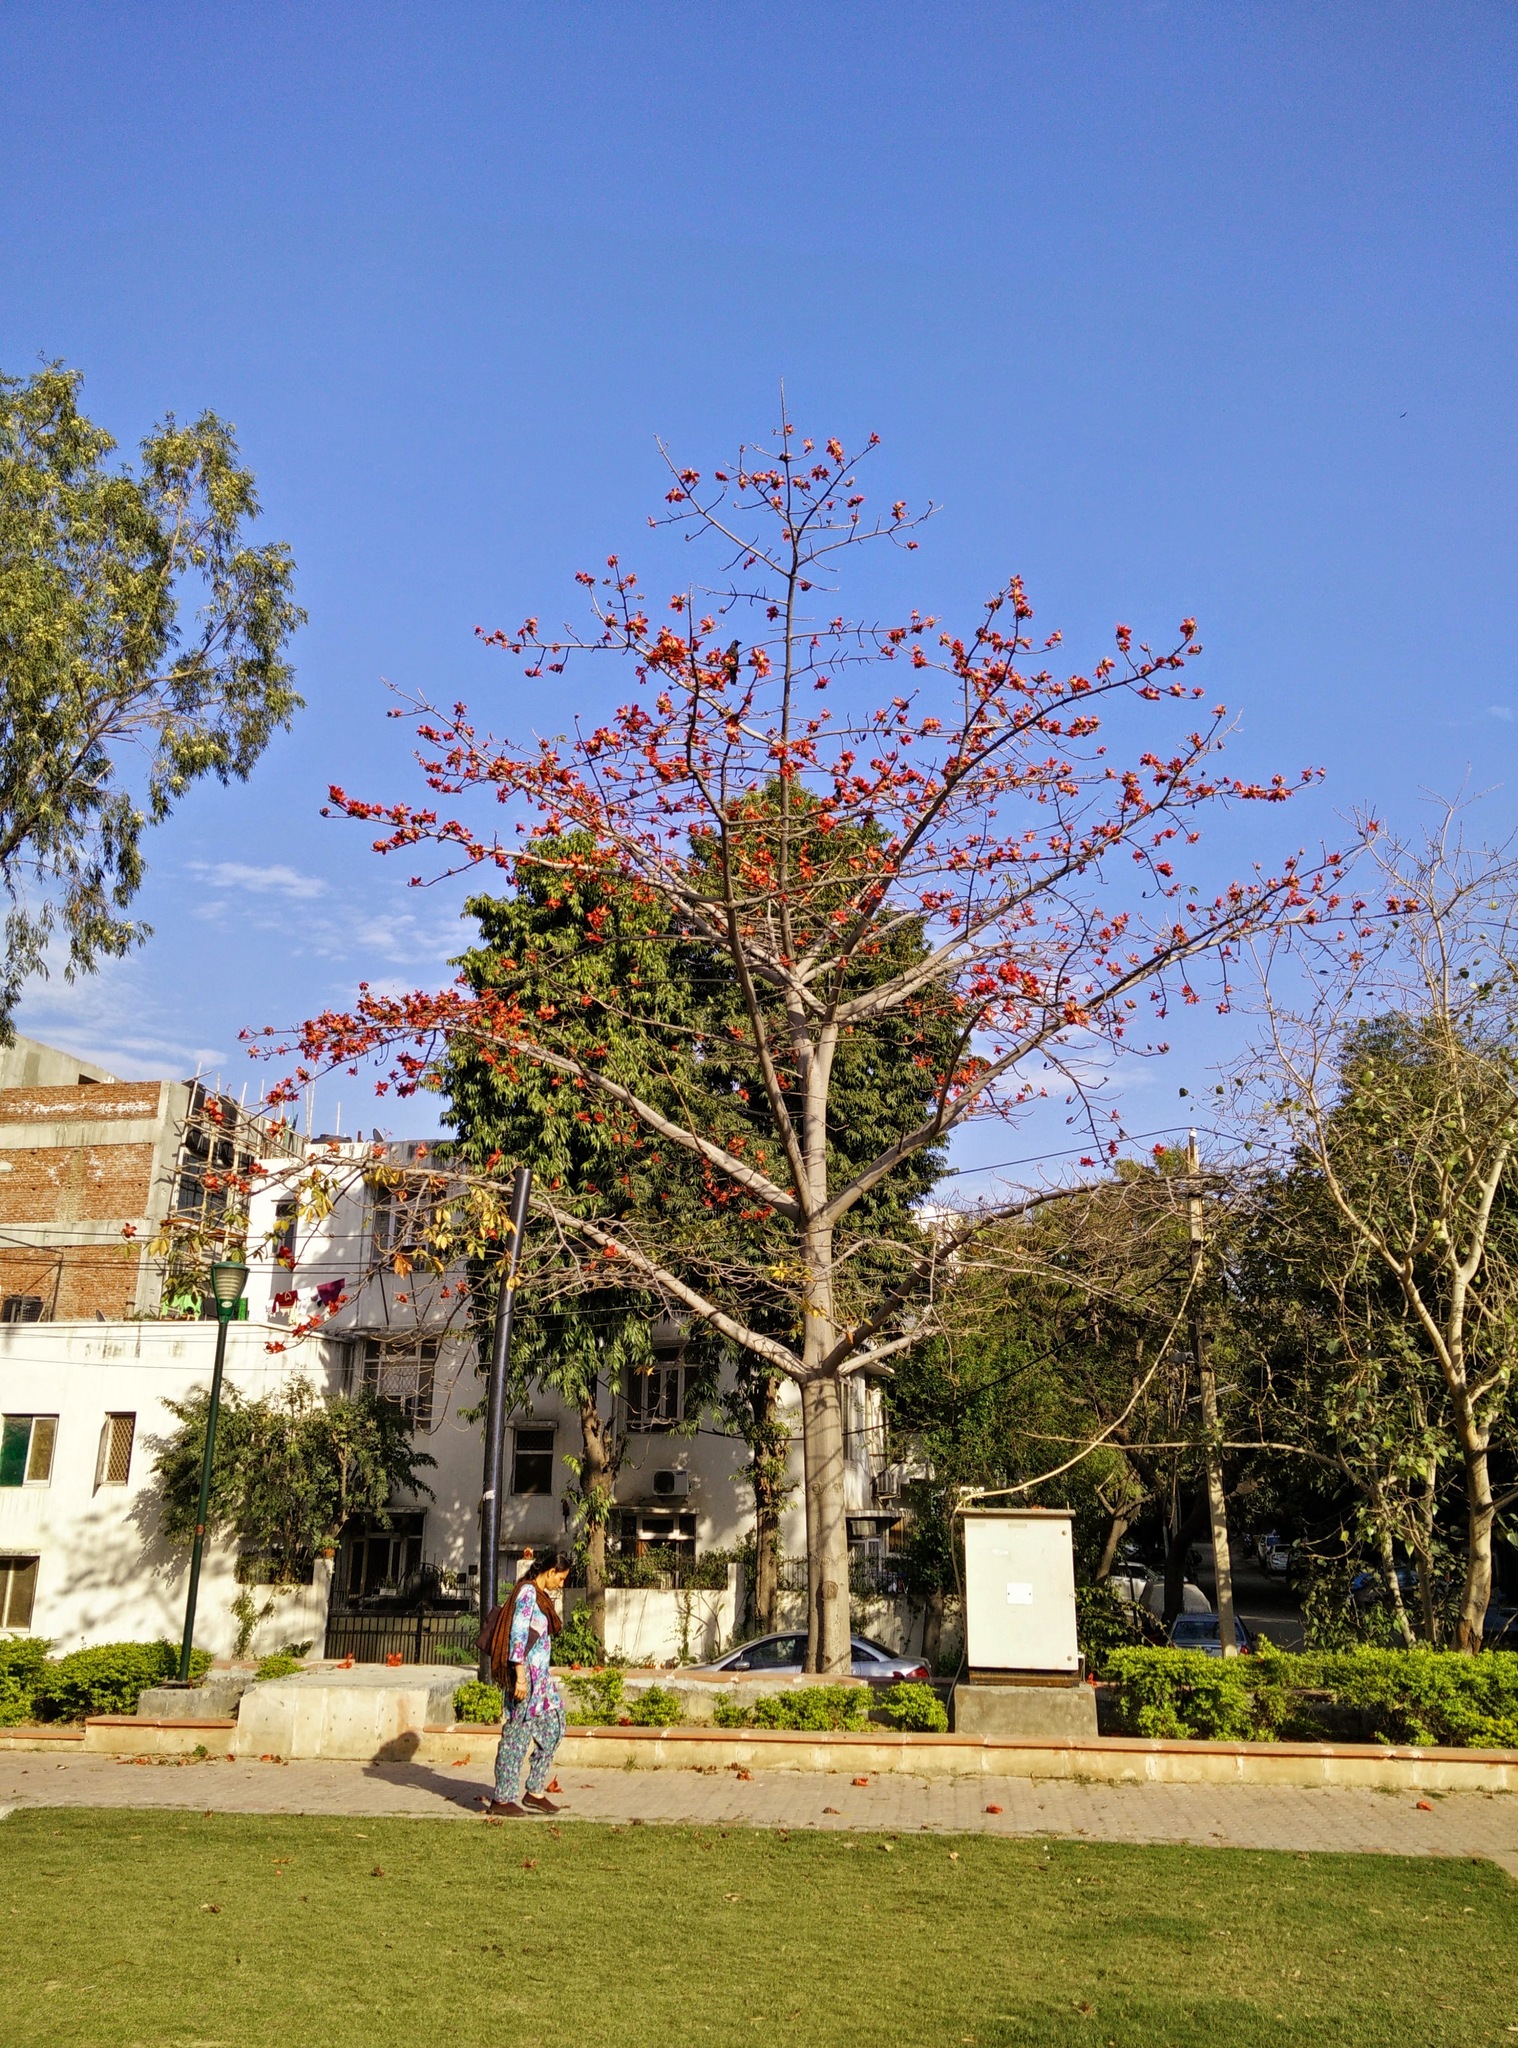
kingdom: Plantae
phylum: Tracheophyta
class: Magnoliopsida
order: Malvales
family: Malvaceae
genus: Bombax
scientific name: Bombax ceiba
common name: Northern-cottonwood
